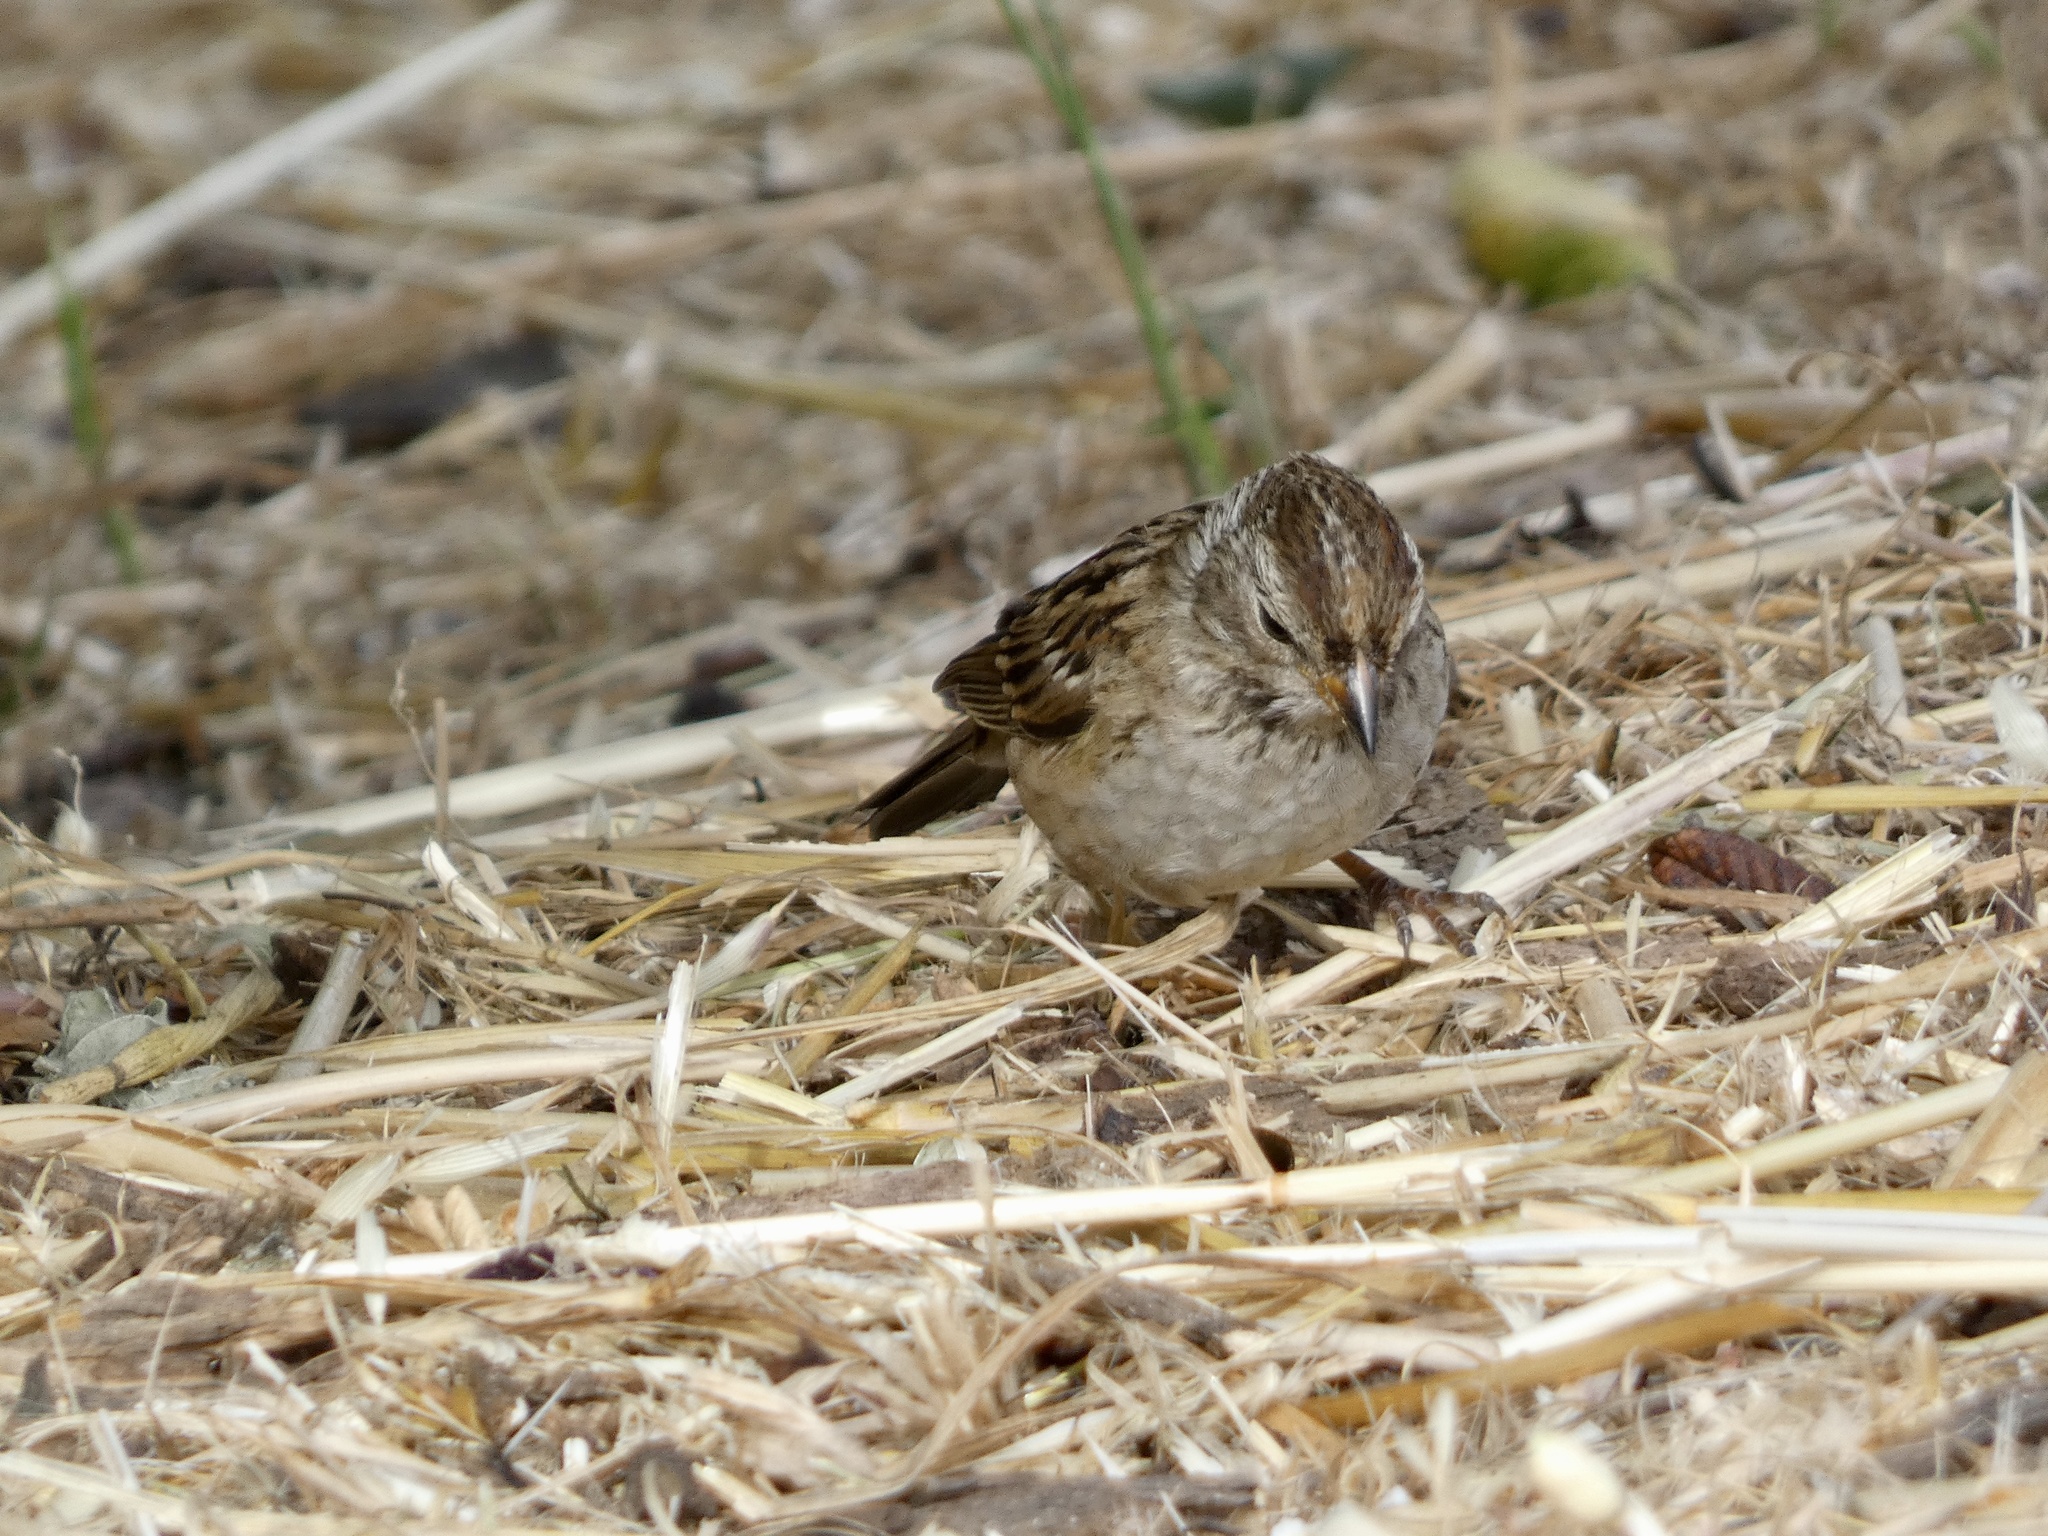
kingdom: Animalia
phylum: Chordata
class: Aves
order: Passeriformes
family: Passerellidae
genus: Zonotrichia
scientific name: Zonotrichia leucophrys
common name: White-crowned sparrow
